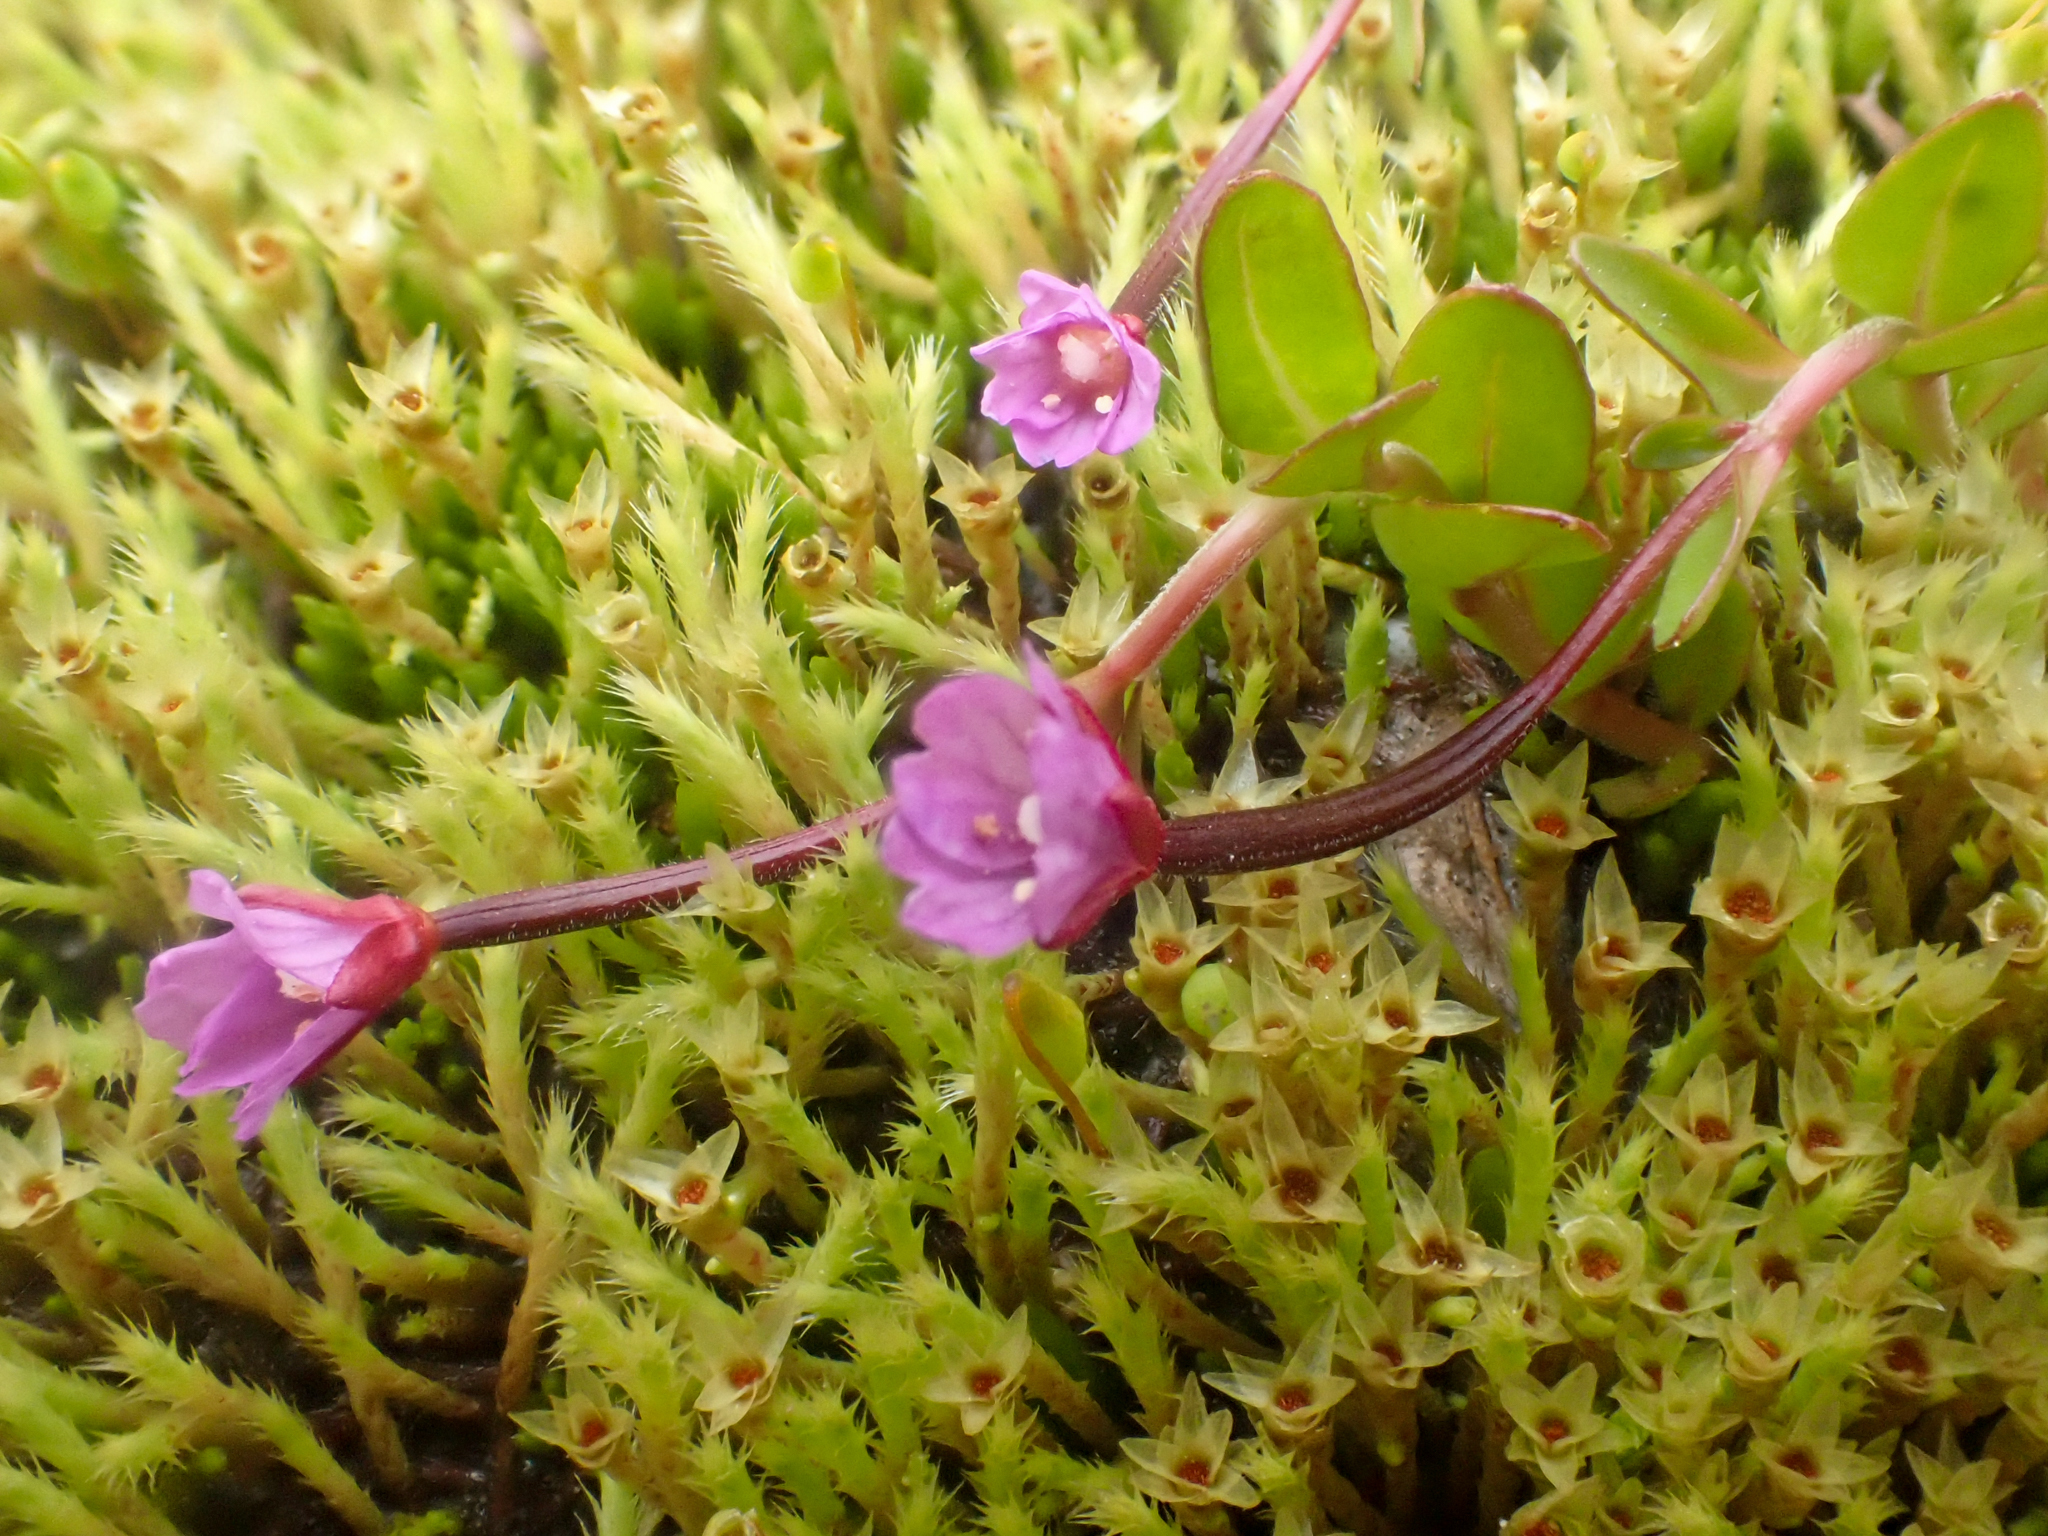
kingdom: Plantae
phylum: Tracheophyta
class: Magnoliopsida
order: Myrtales
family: Onagraceae
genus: Epilobium
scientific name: Epilobium anagallidifolium
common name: Alpine willowherb
